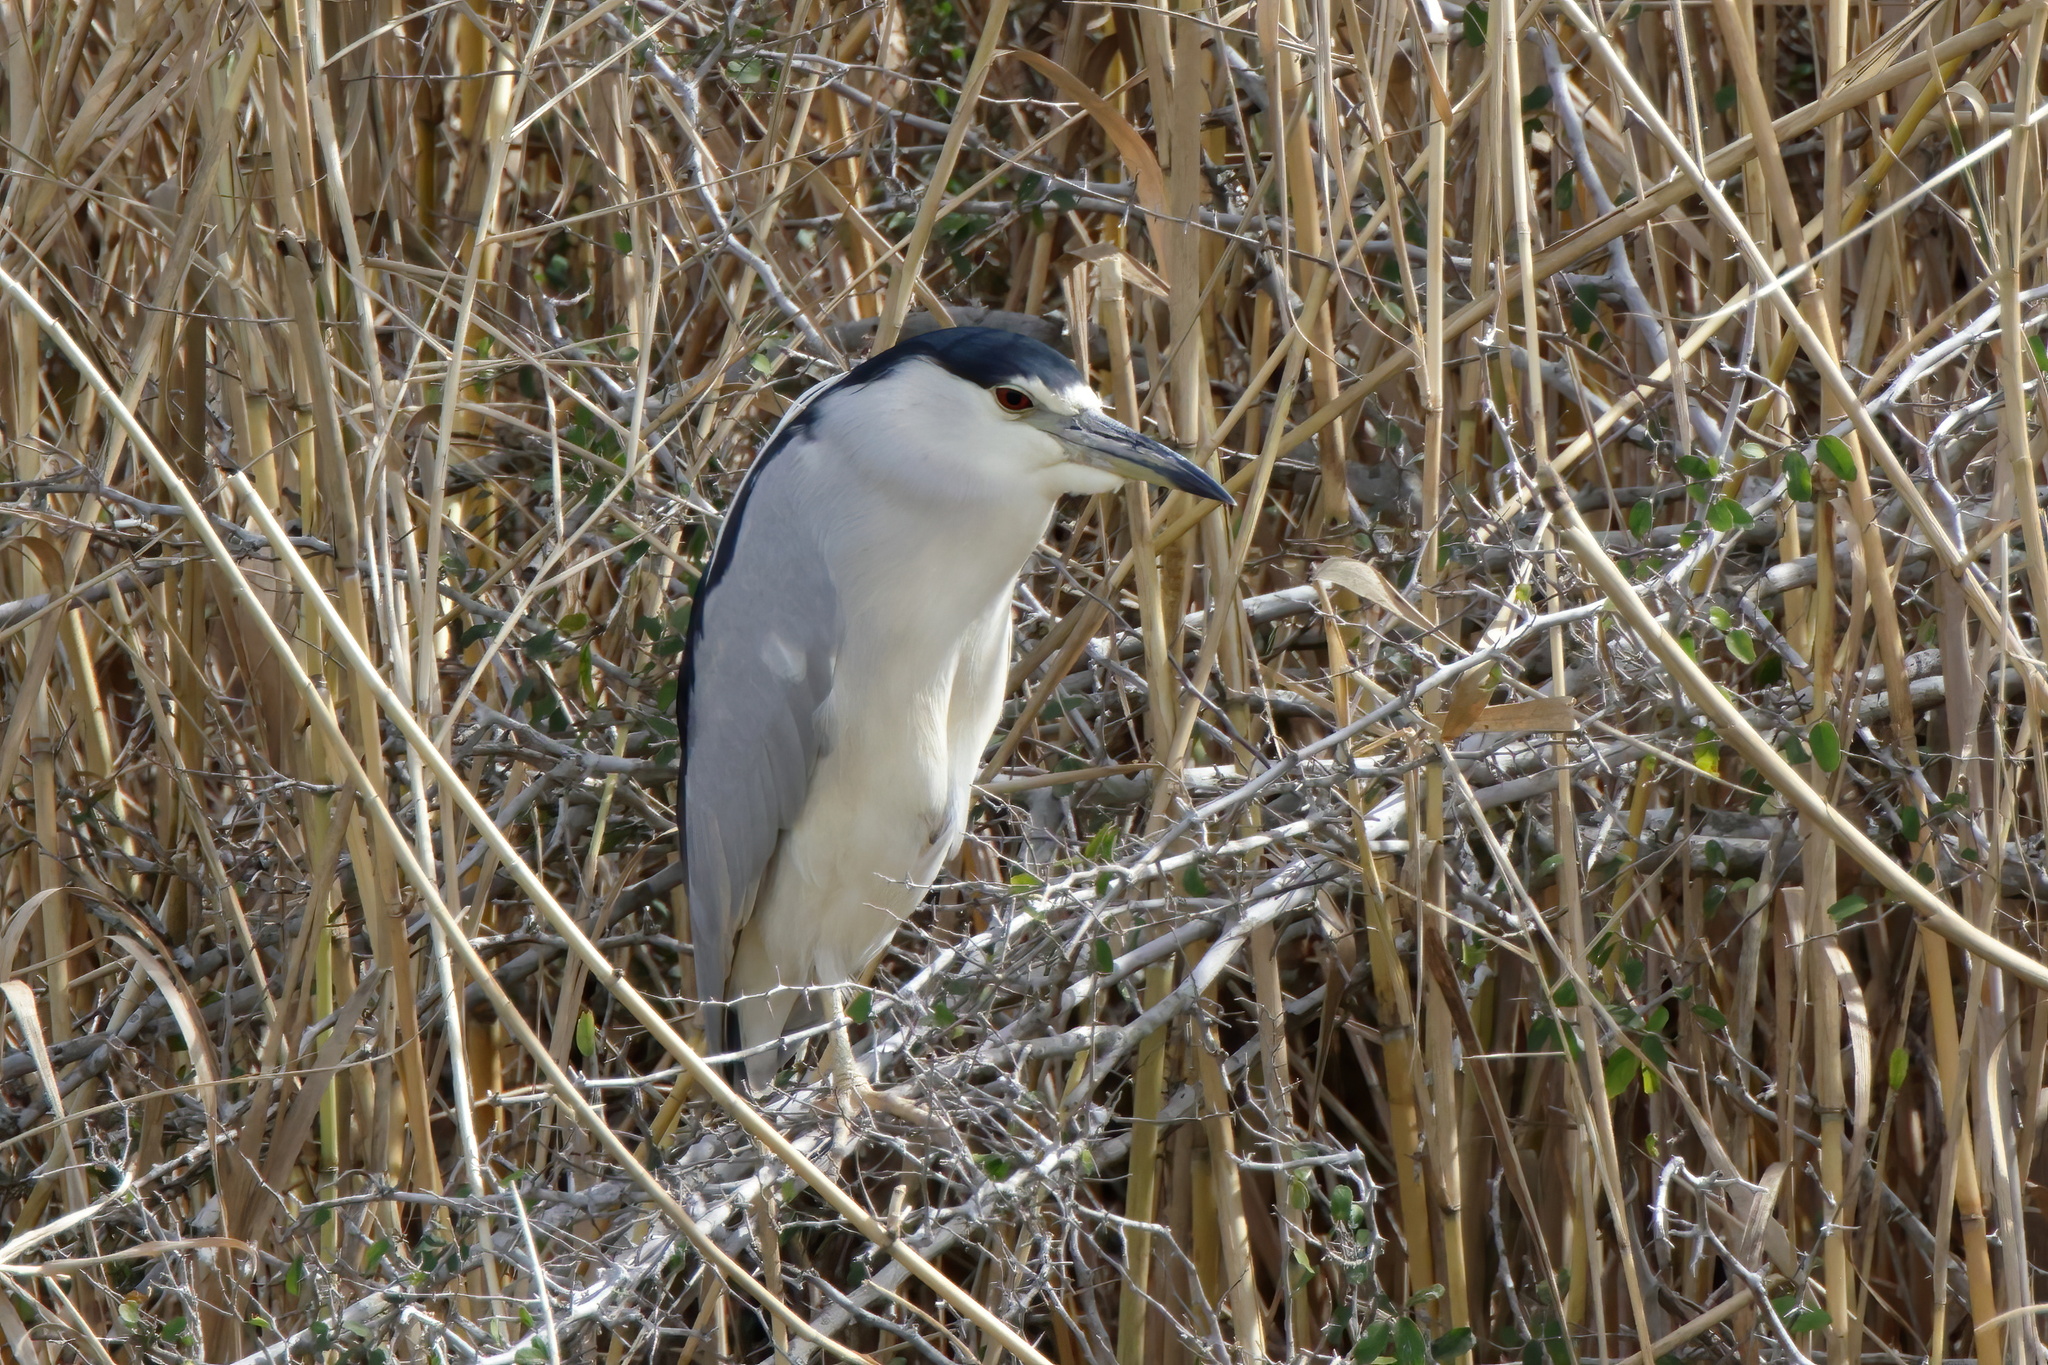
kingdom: Animalia
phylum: Chordata
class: Aves
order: Pelecaniformes
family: Ardeidae
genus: Nycticorax
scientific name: Nycticorax nycticorax
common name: Black-crowned night heron
